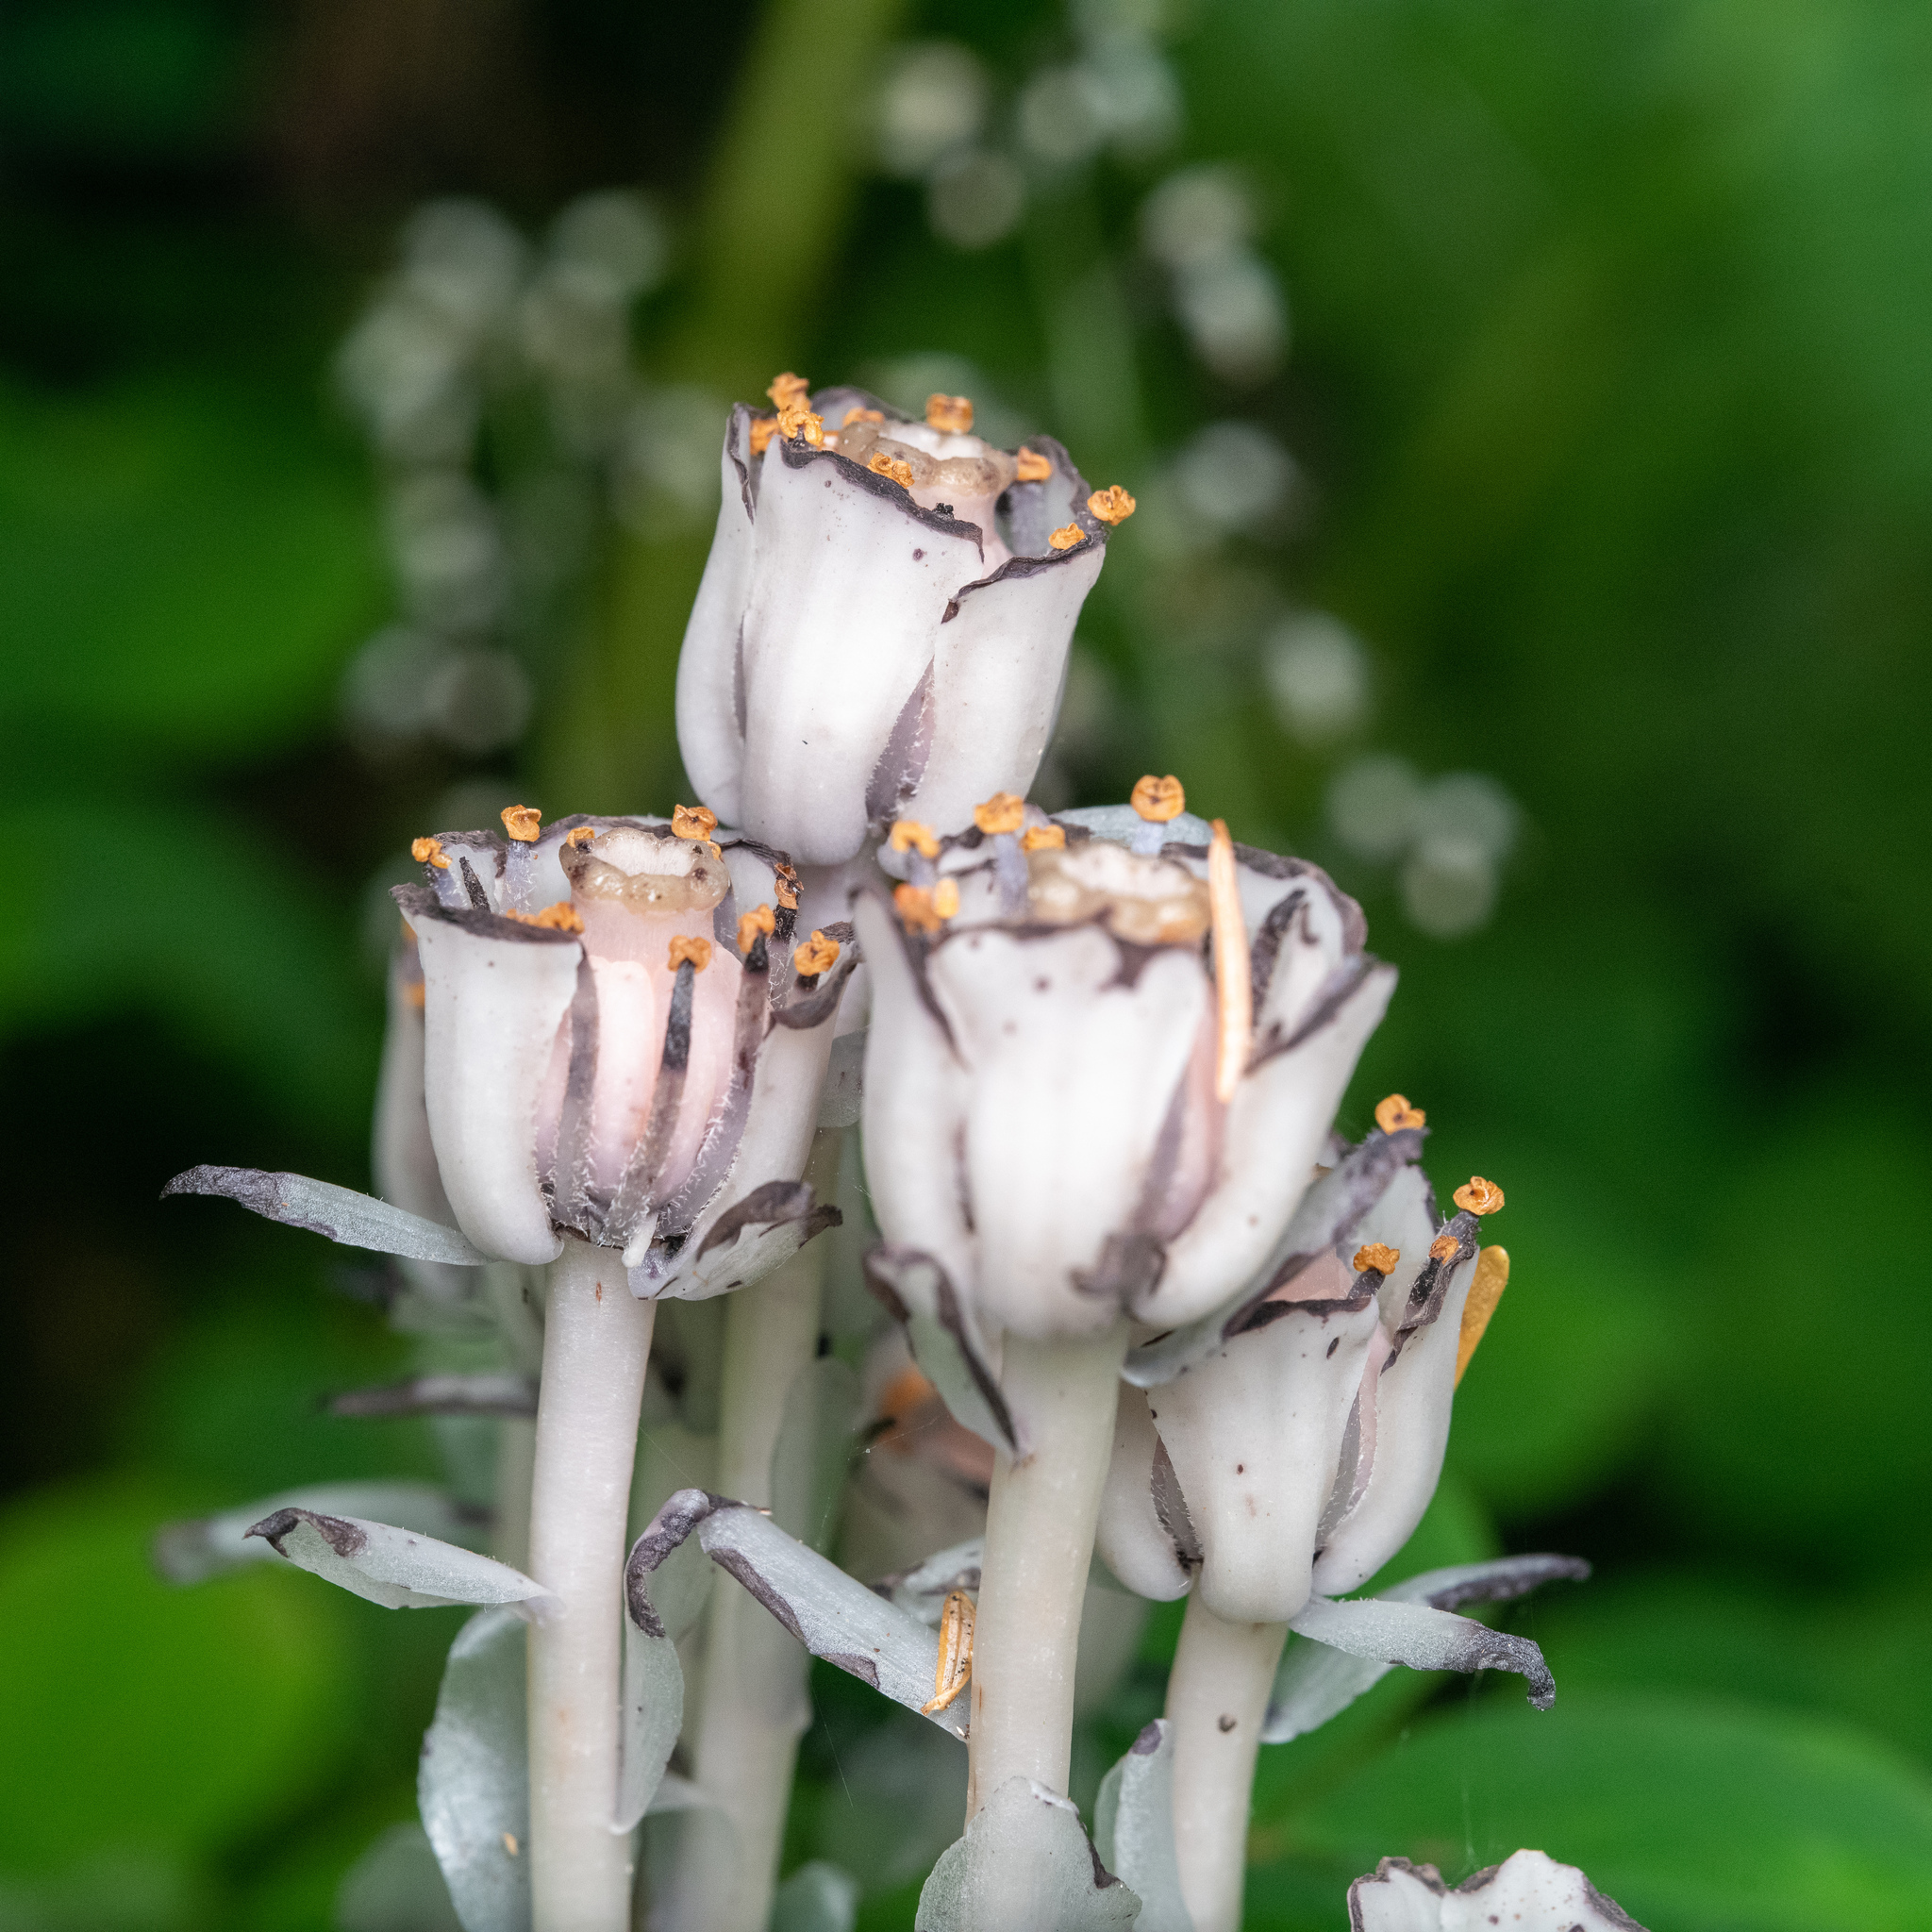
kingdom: Plantae
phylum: Tracheophyta
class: Magnoliopsida
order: Ericales
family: Ericaceae
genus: Monotropa
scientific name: Monotropa uniflora
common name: Convulsion root
